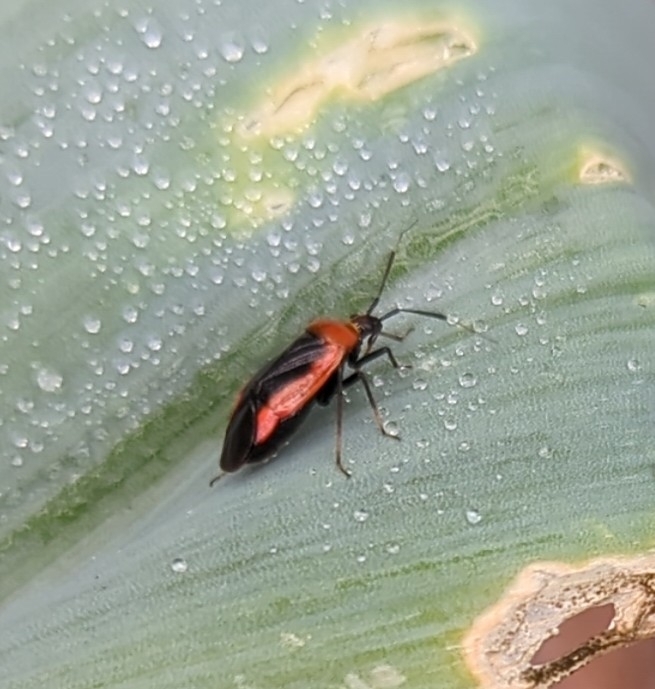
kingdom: Animalia
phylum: Arthropoda
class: Insecta
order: Hemiptera
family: Miridae
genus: Metriorrhynchomiris
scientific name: Metriorrhynchomiris dislocatus
